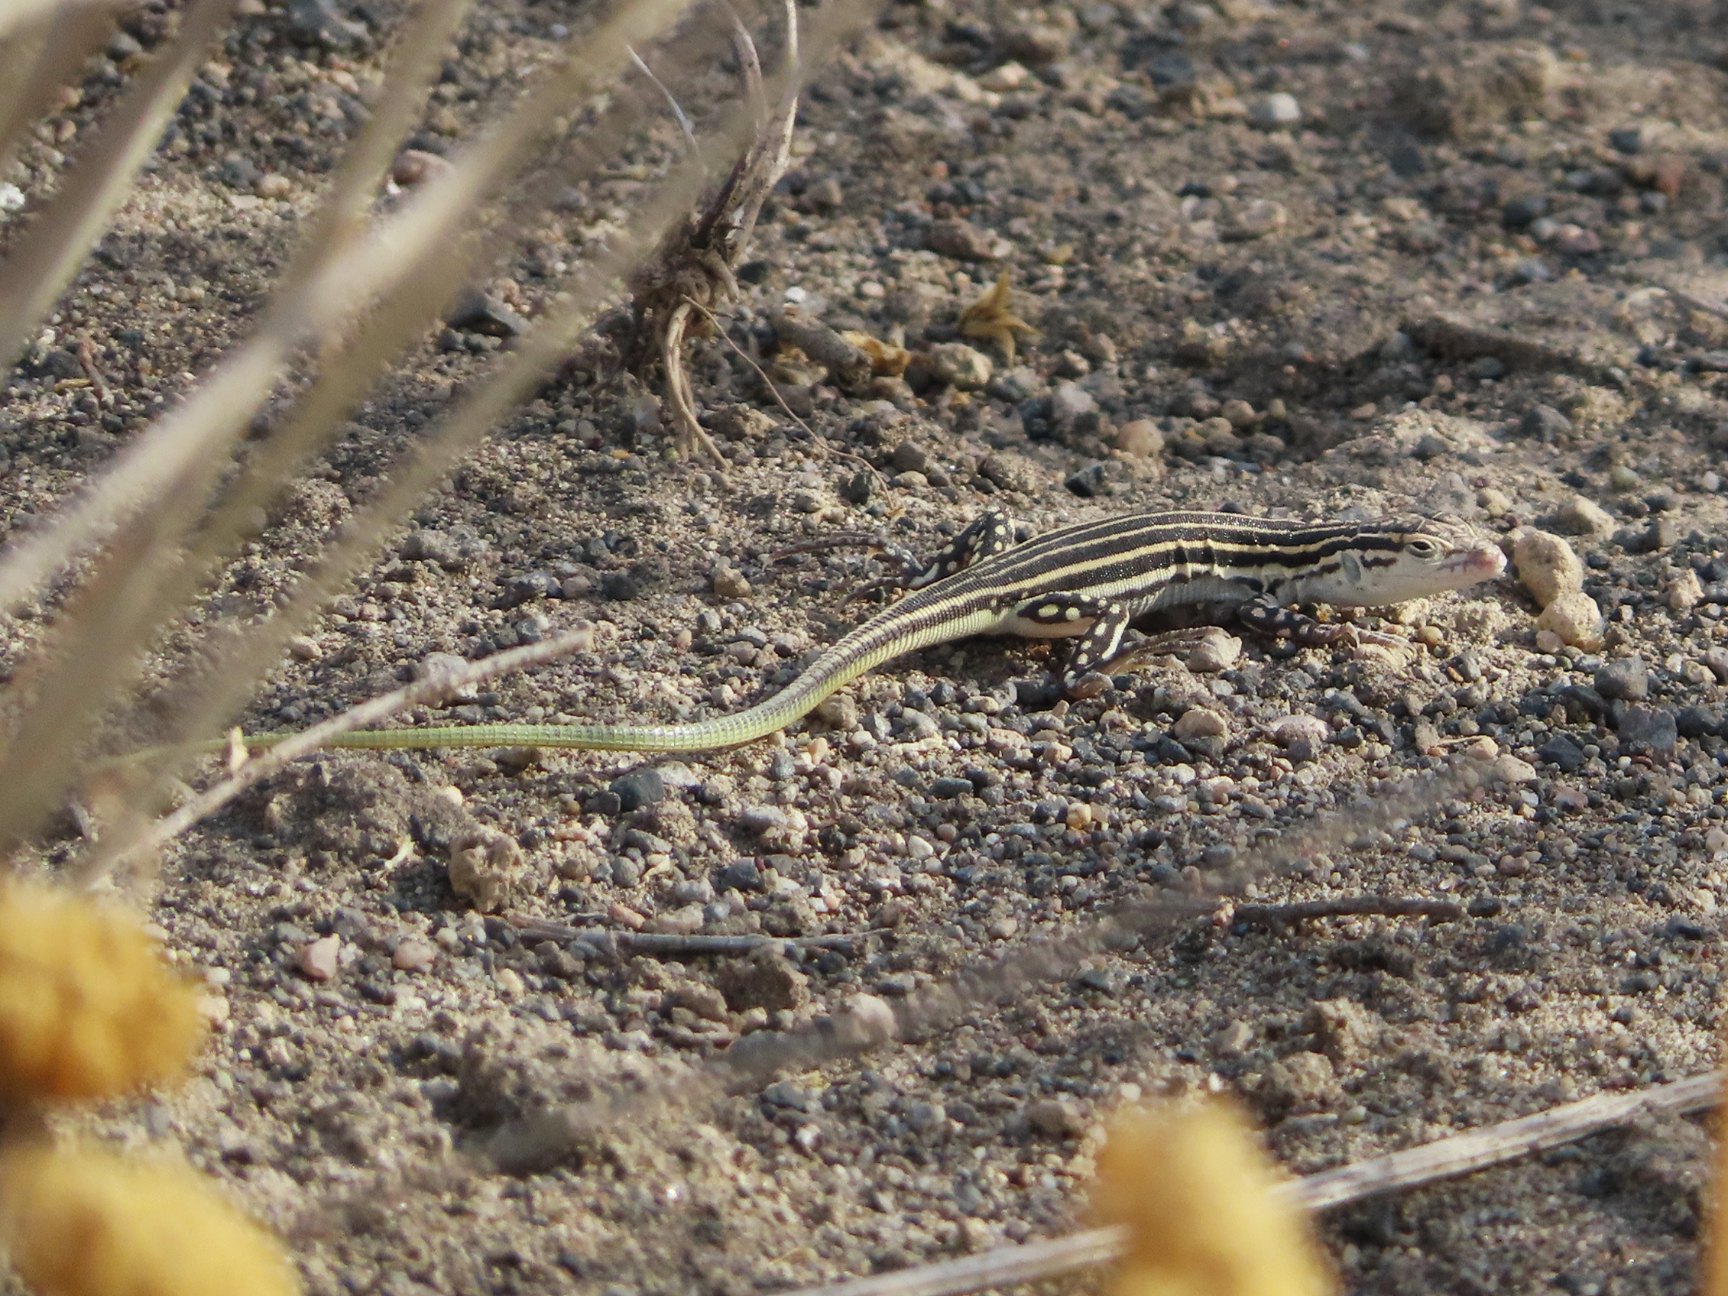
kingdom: Animalia
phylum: Chordata
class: Squamata
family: Lacertidae
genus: Eremias
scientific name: Eremias pleskei
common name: Pleske's racerunner
